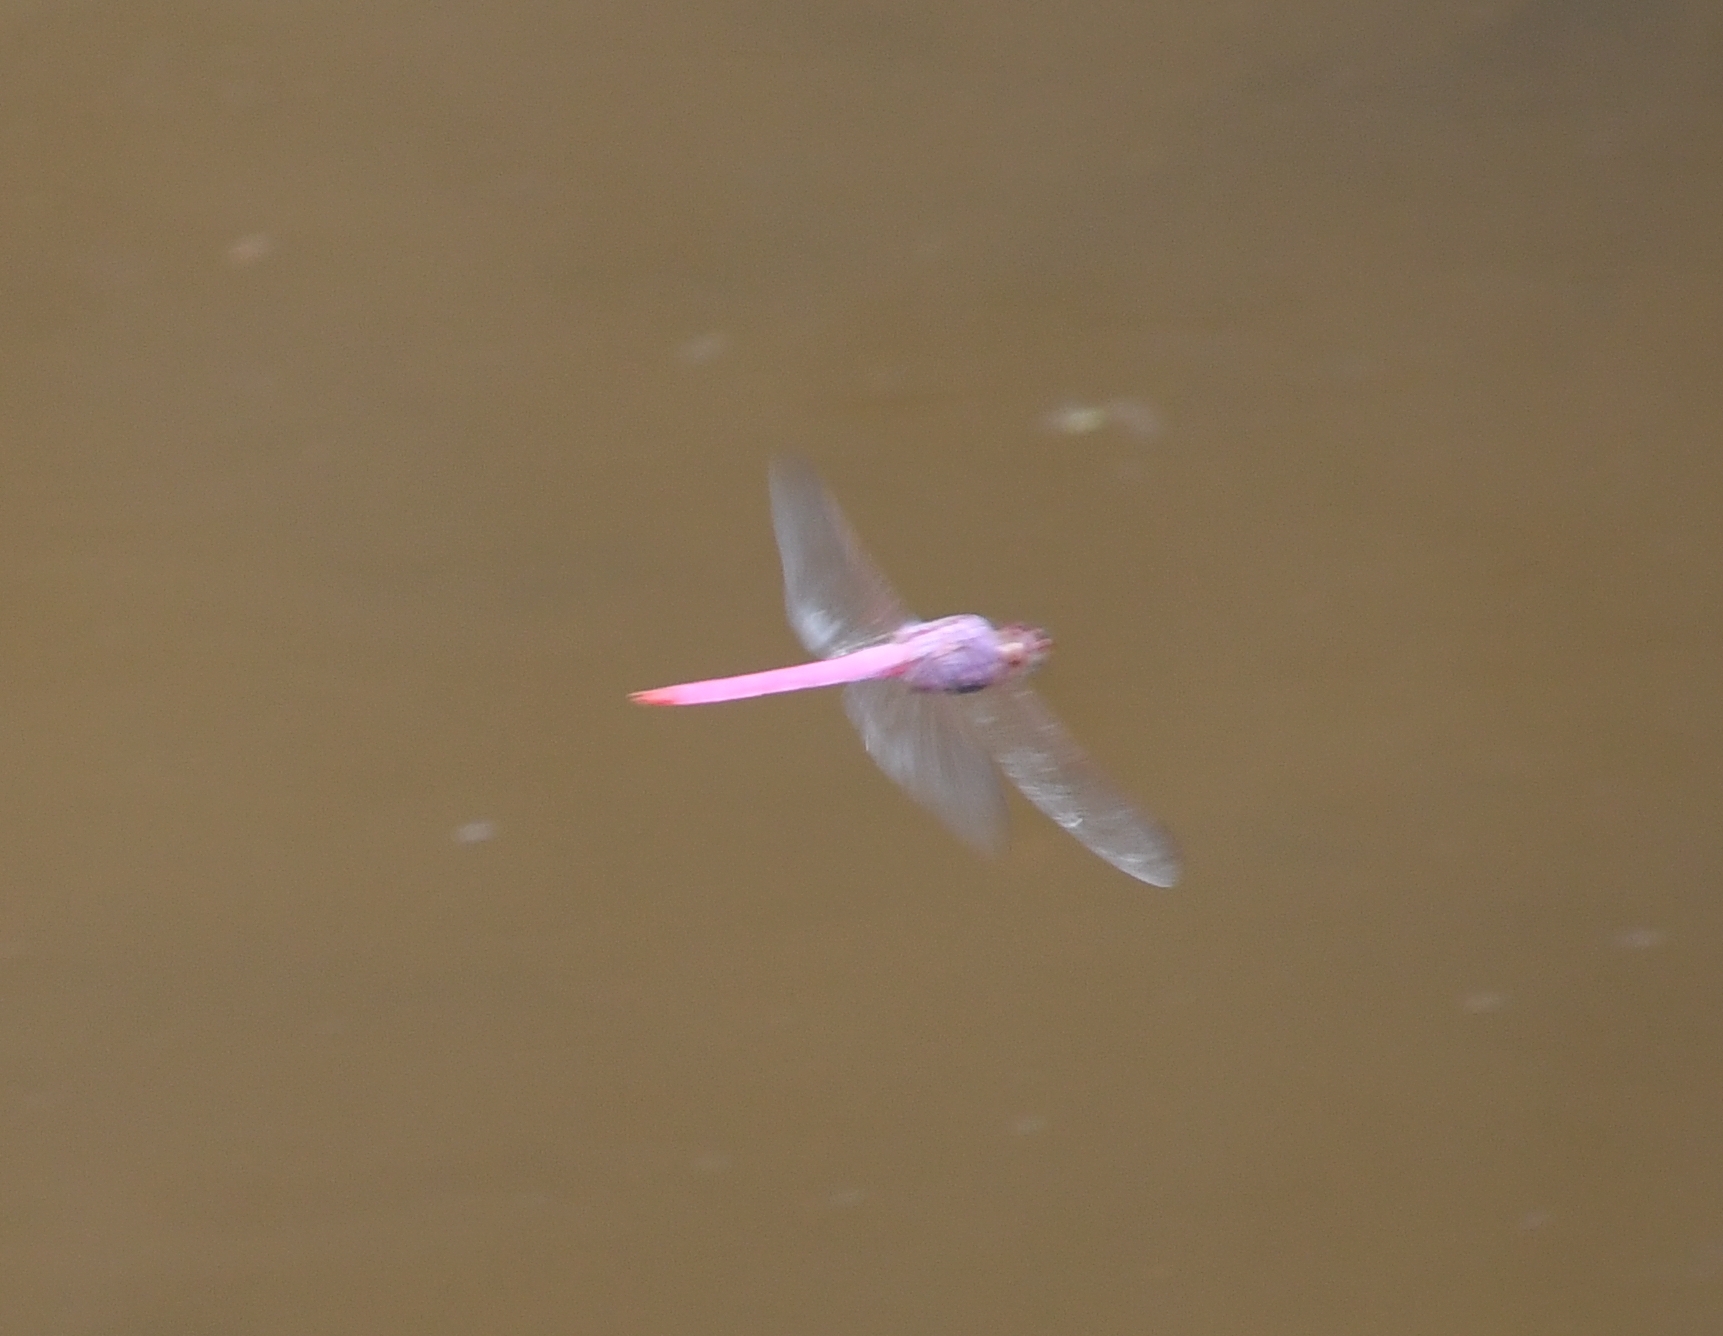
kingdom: Animalia
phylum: Arthropoda
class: Insecta
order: Odonata
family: Libellulidae
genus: Orthemis
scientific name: Orthemis ferruginea
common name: Roseate skimmer
